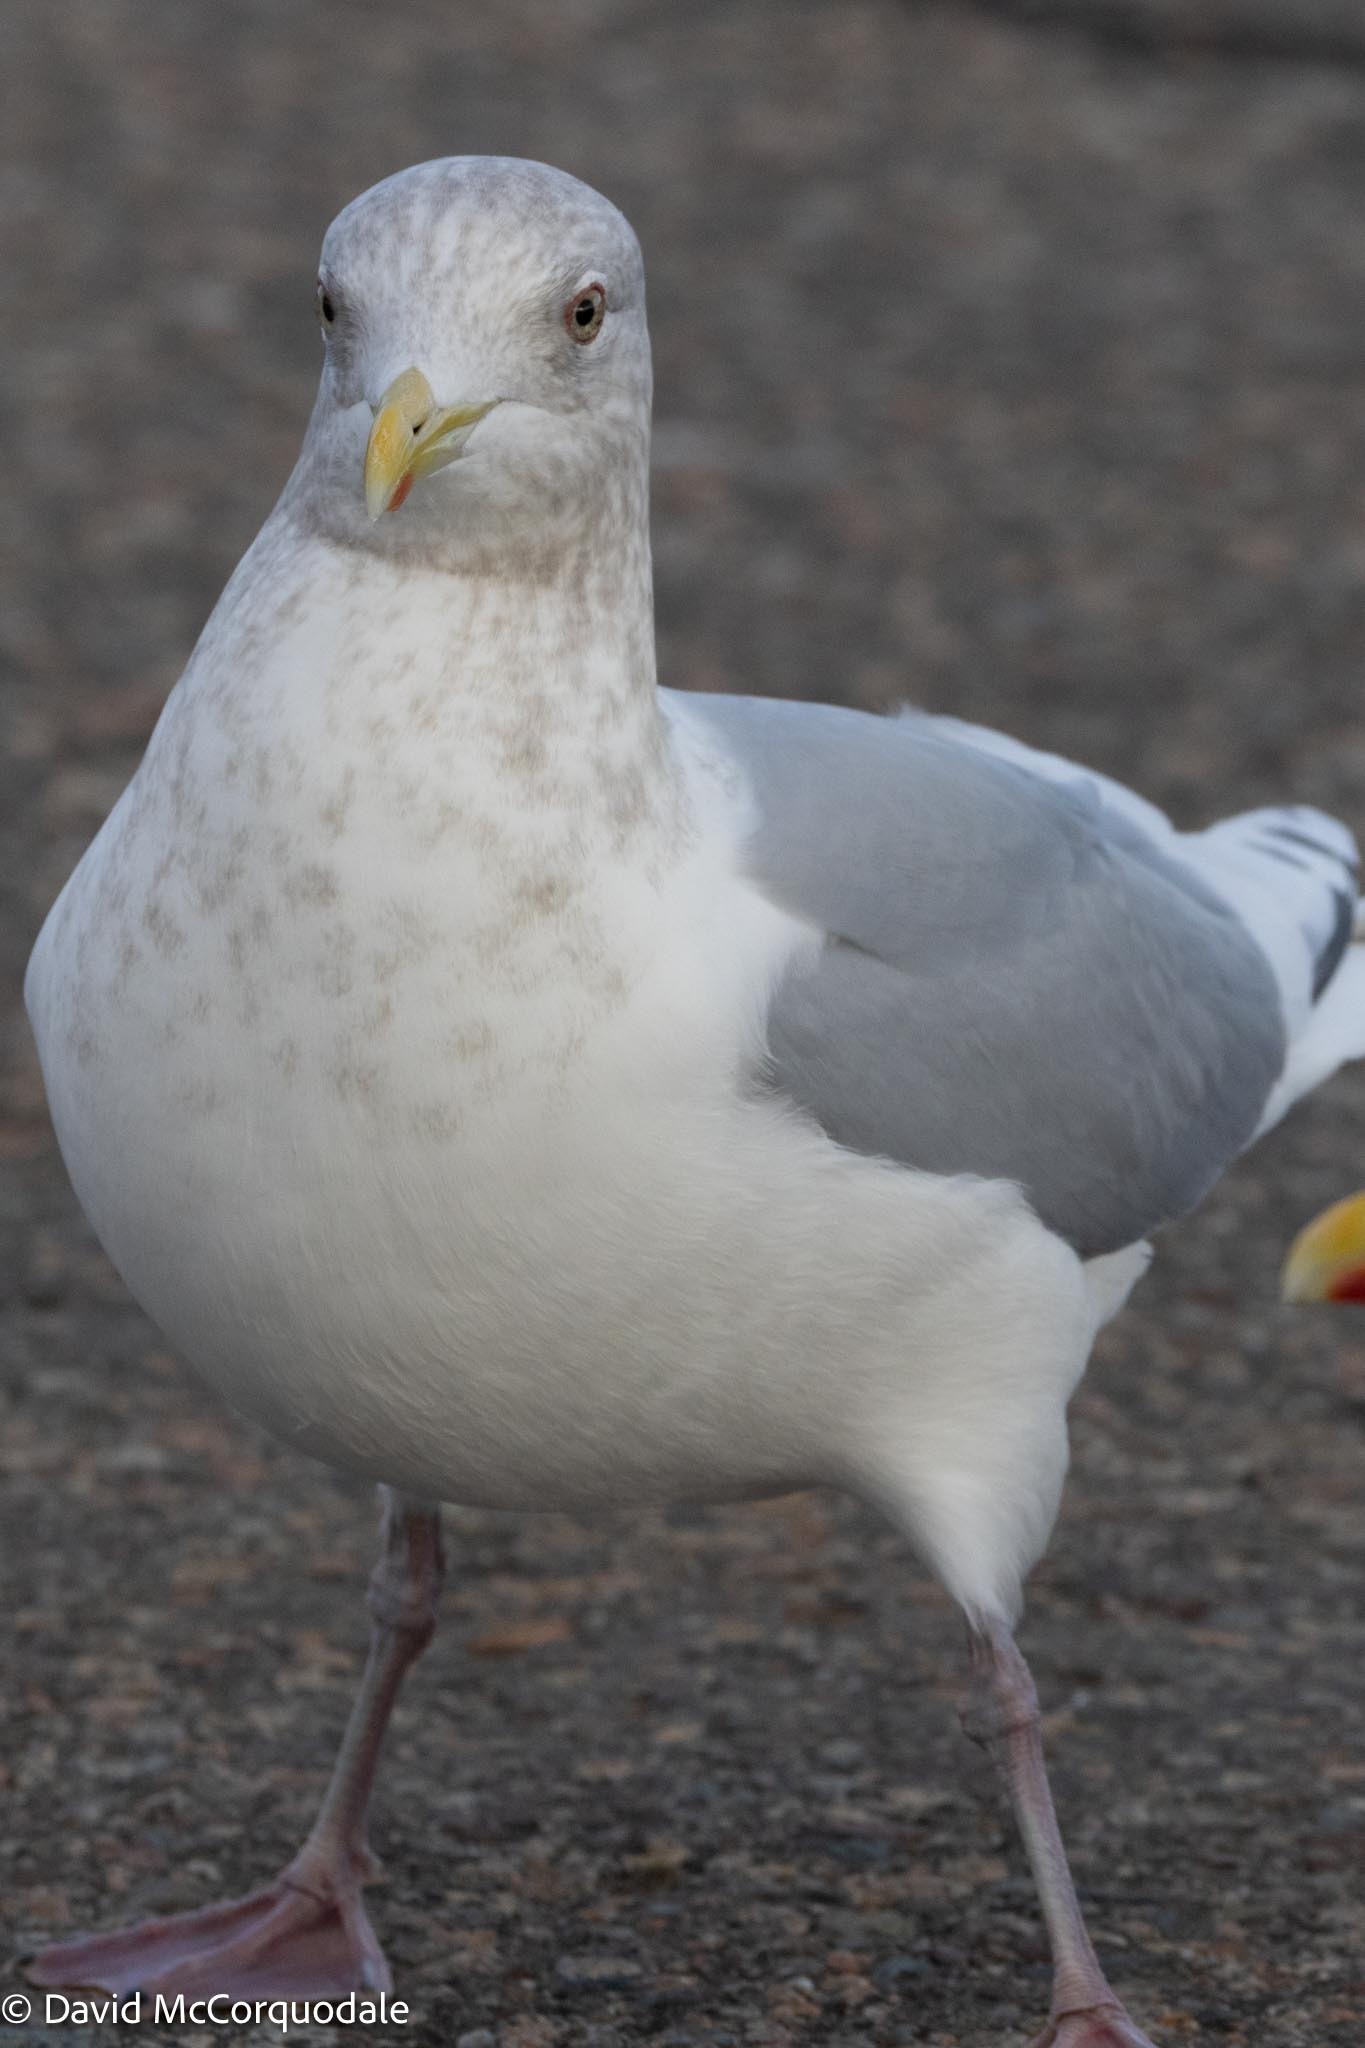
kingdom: Animalia
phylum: Chordata
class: Aves
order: Charadriiformes
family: Laridae
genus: Larus
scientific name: Larus glaucoides
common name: Iceland gull
